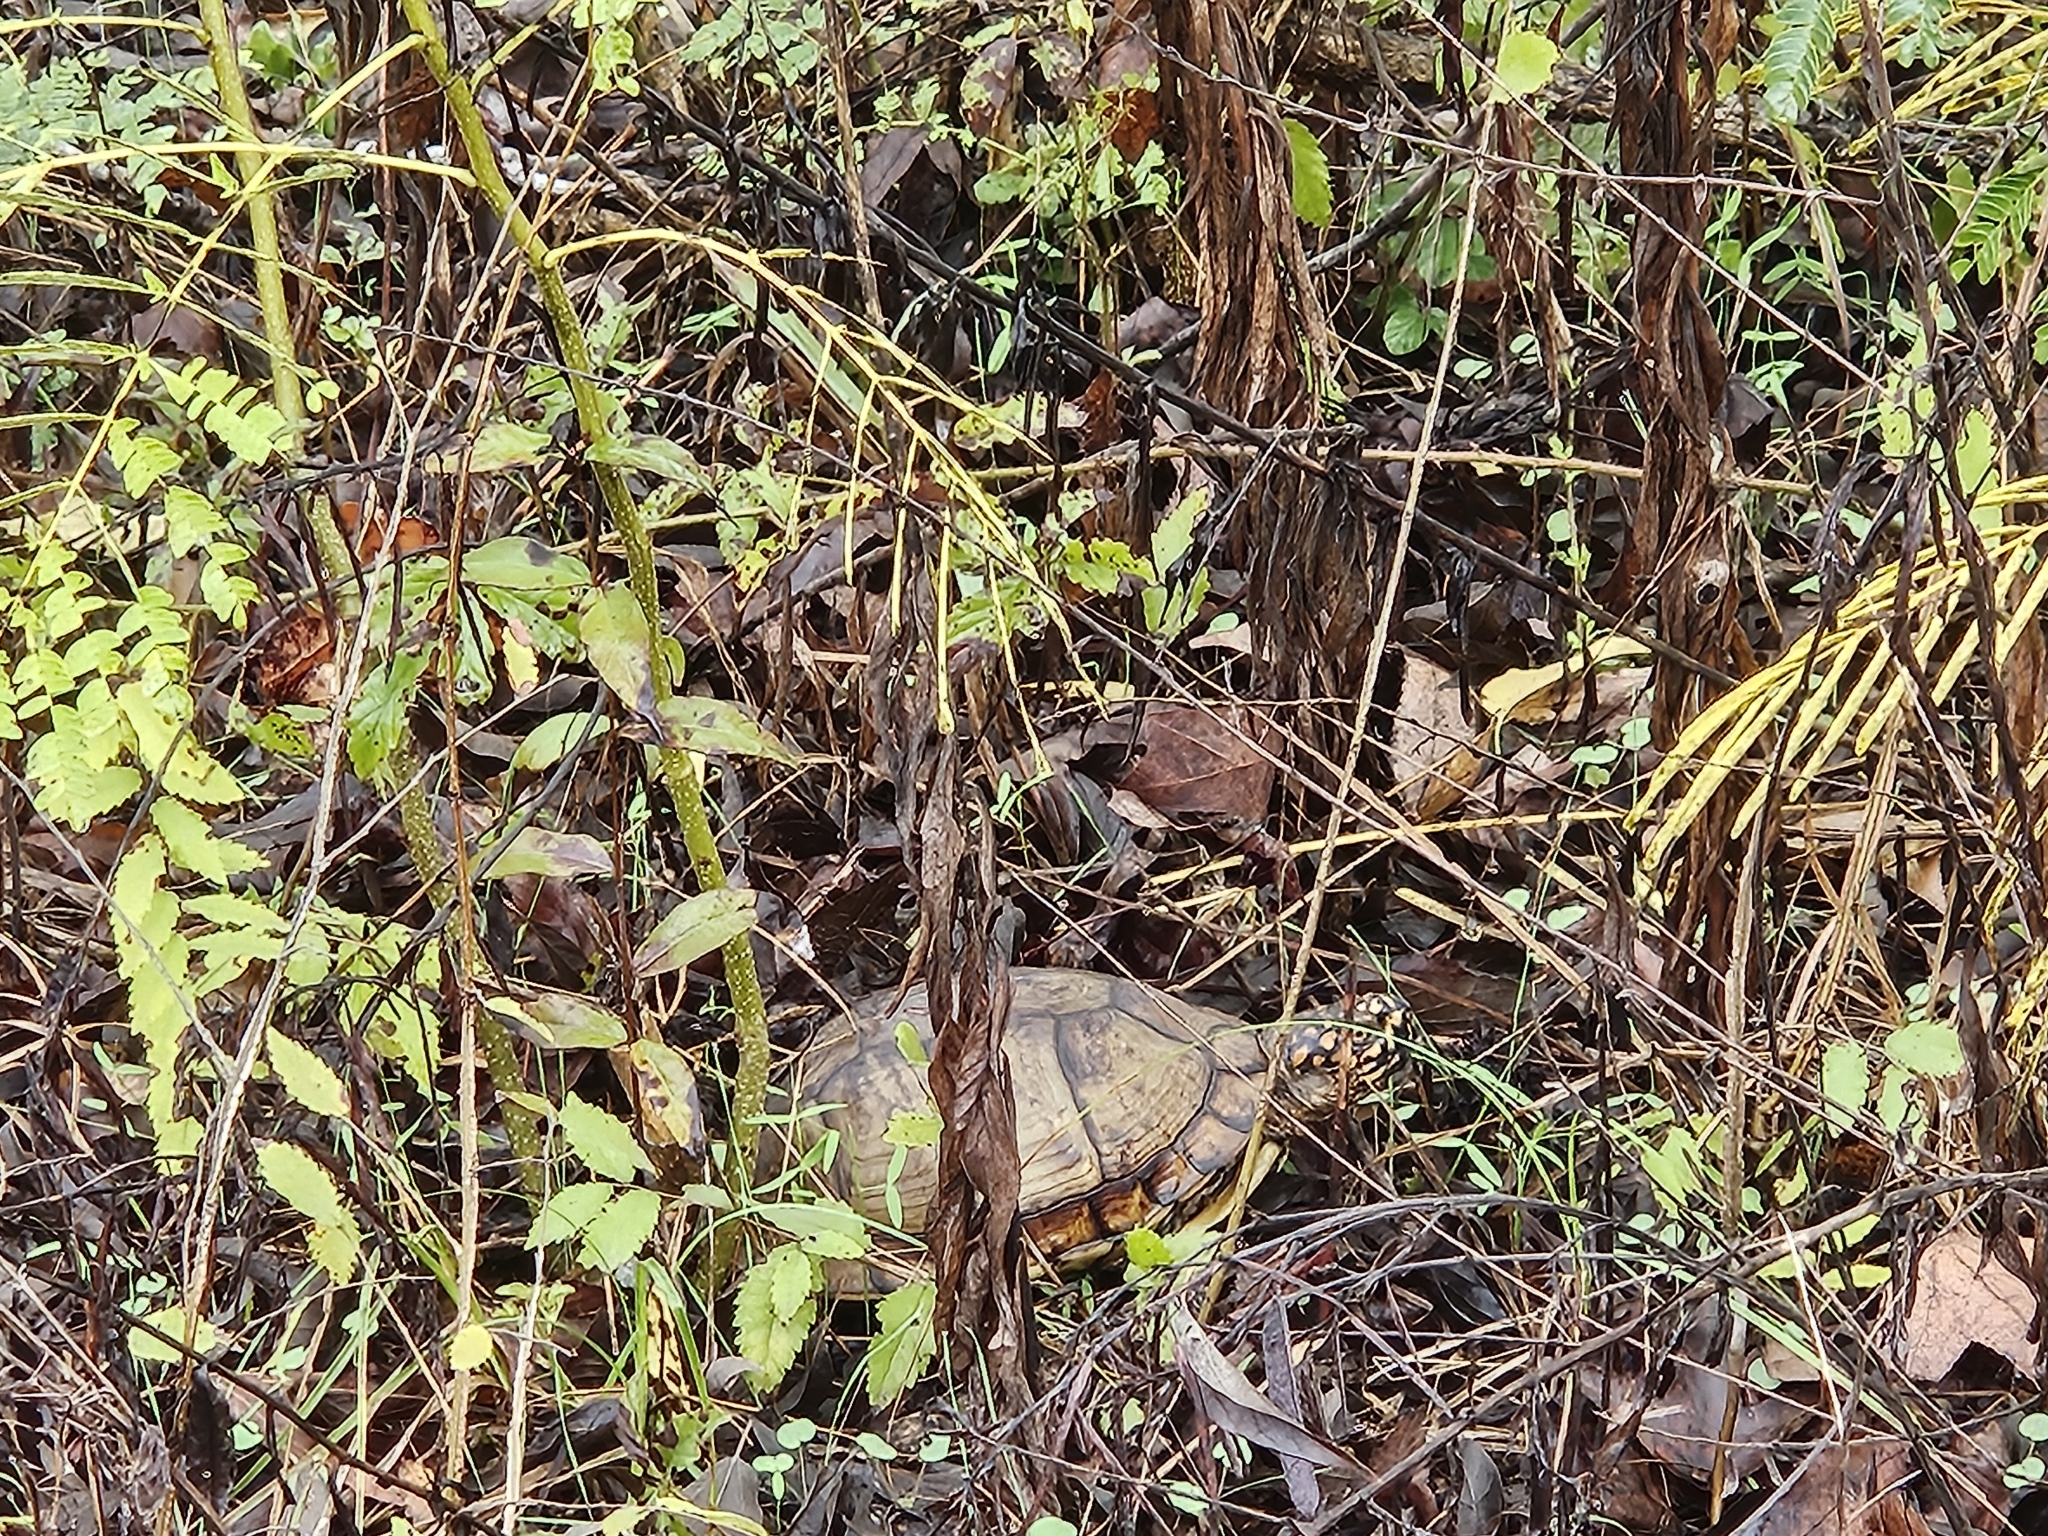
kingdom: Animalia
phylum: Chordata
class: Testudines
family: Emydidae
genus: Terrapene
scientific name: Terrapene carolina
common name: Common box turtle
